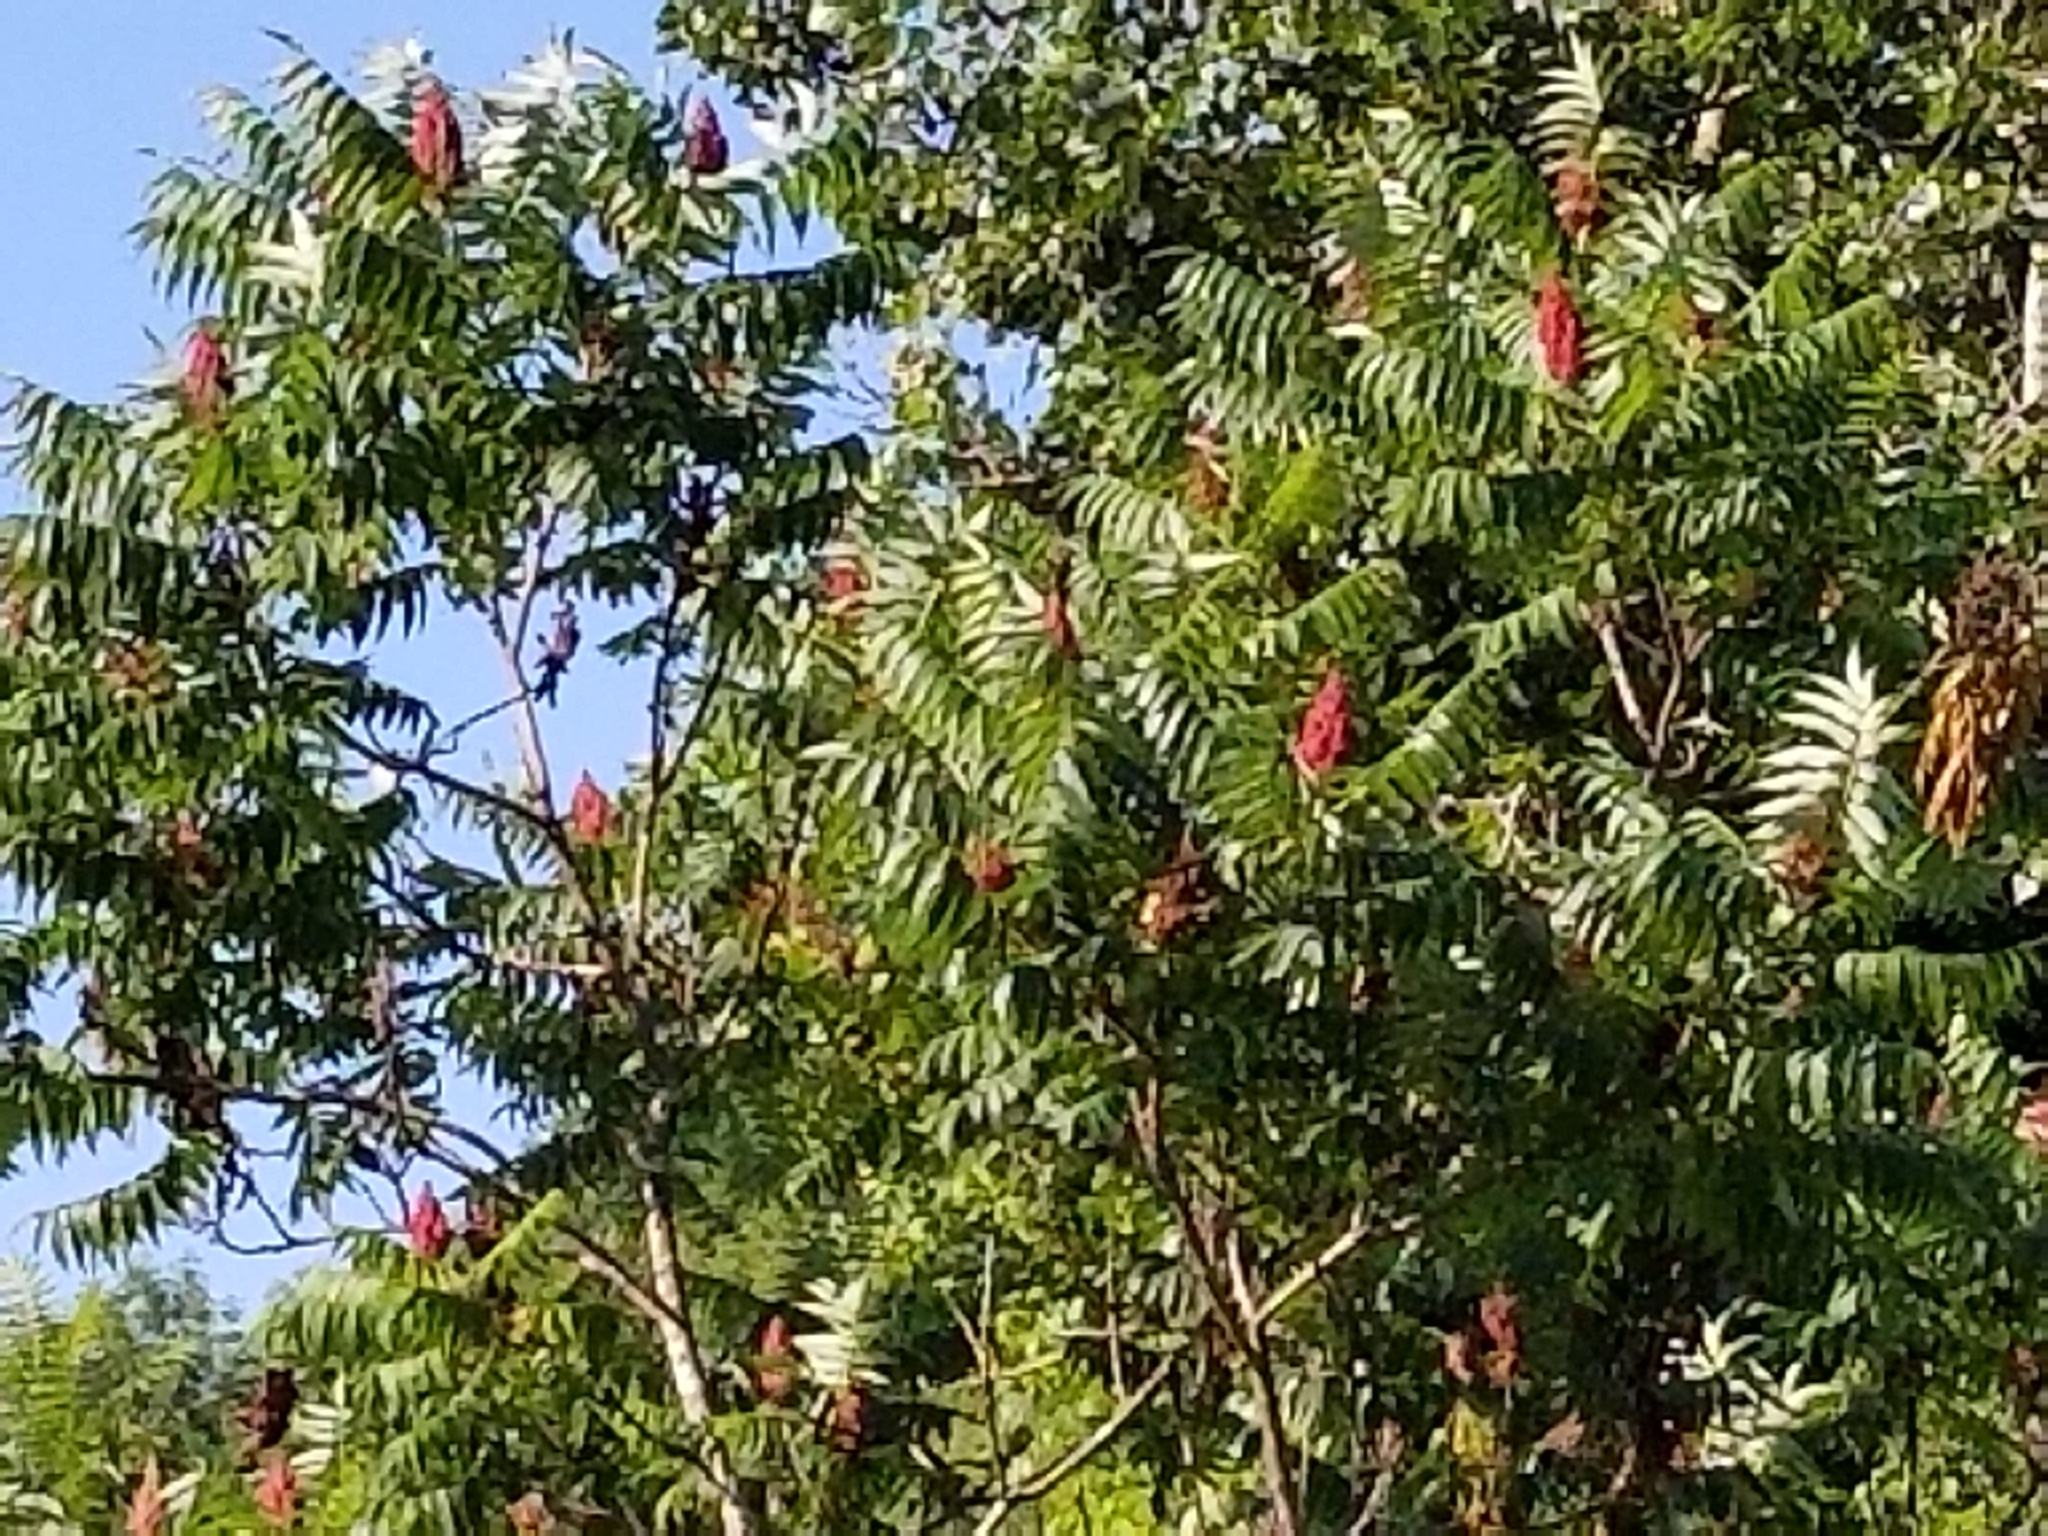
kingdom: Plantae
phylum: Tracheophyta
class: Magnoliopsida
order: Sapindales
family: Anacardiaceae
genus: Rhus
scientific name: Rhus typhina
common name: Staghorn sumac
